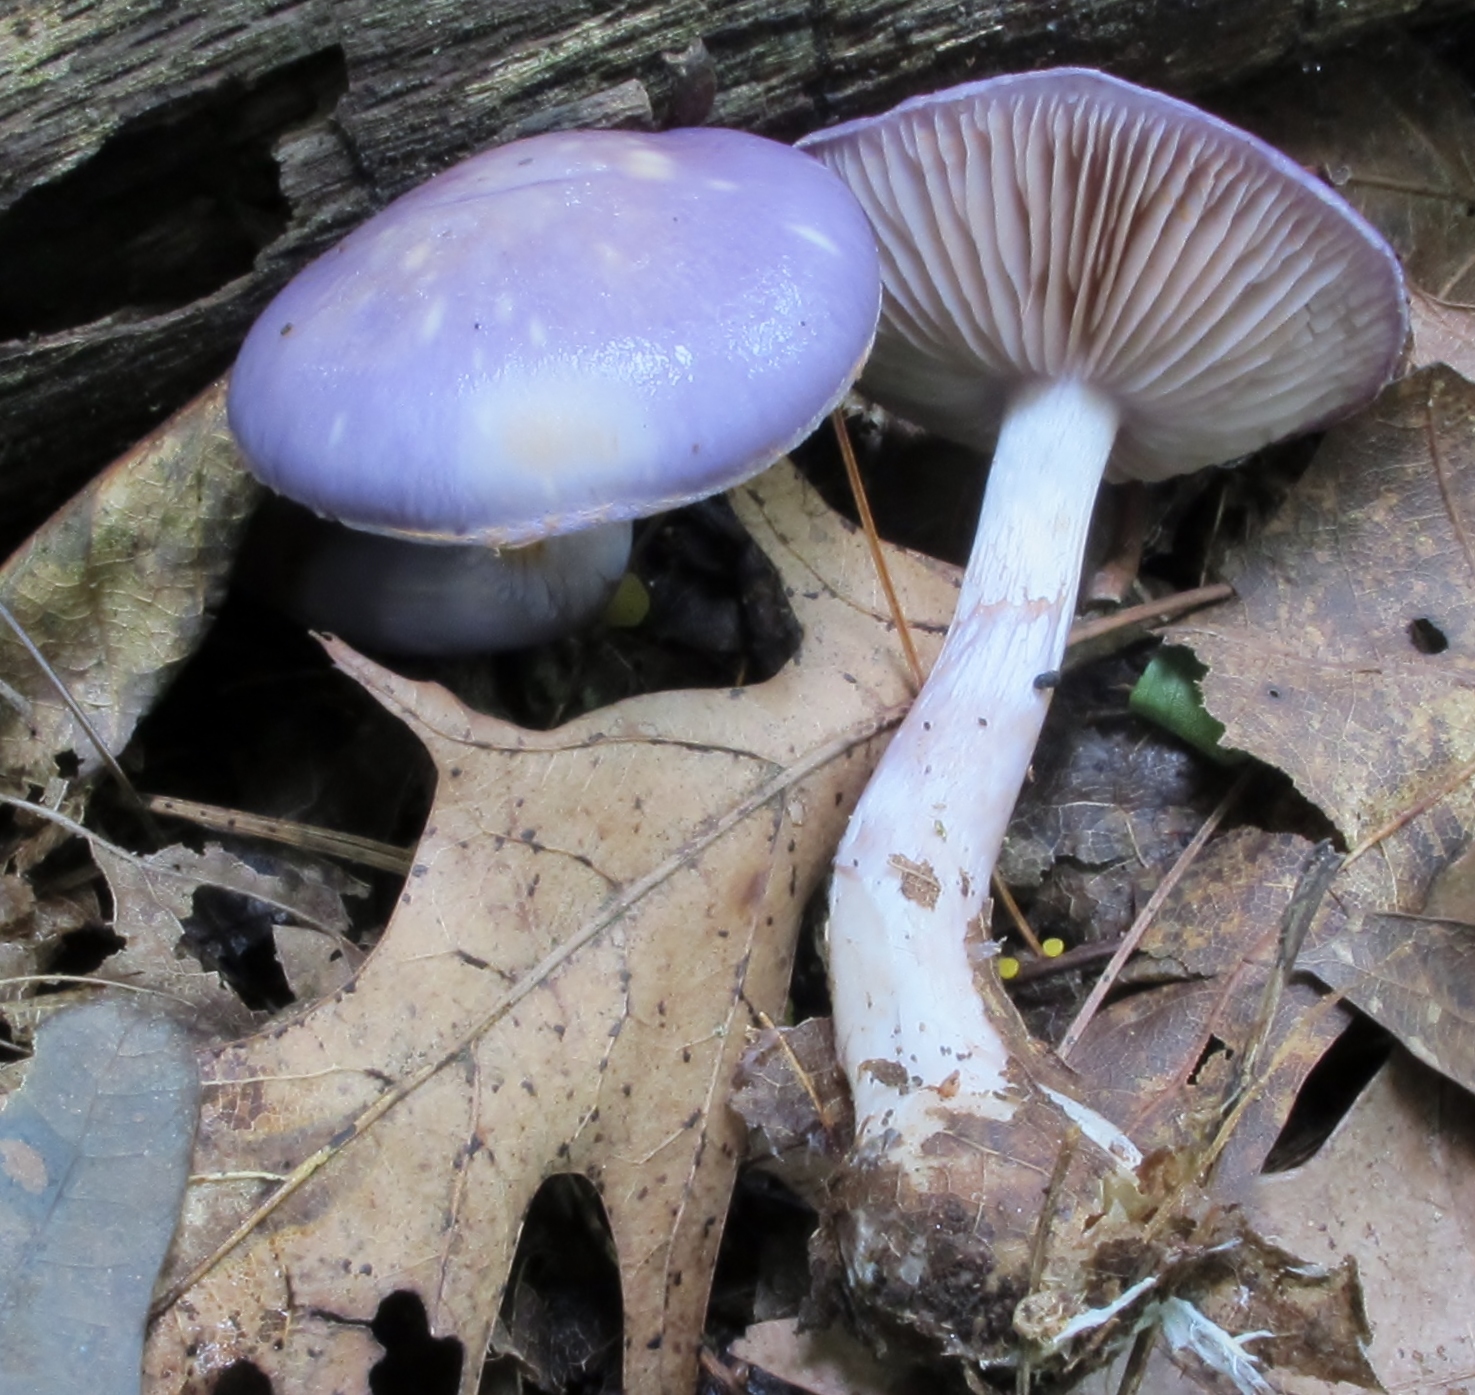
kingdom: Fungi
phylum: Basidiomycota
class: Agaricomycetes
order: Agaricales
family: Cortinariaceae
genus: Cortinarius
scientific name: Cortinarius iodes
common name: Viscid violet cort
